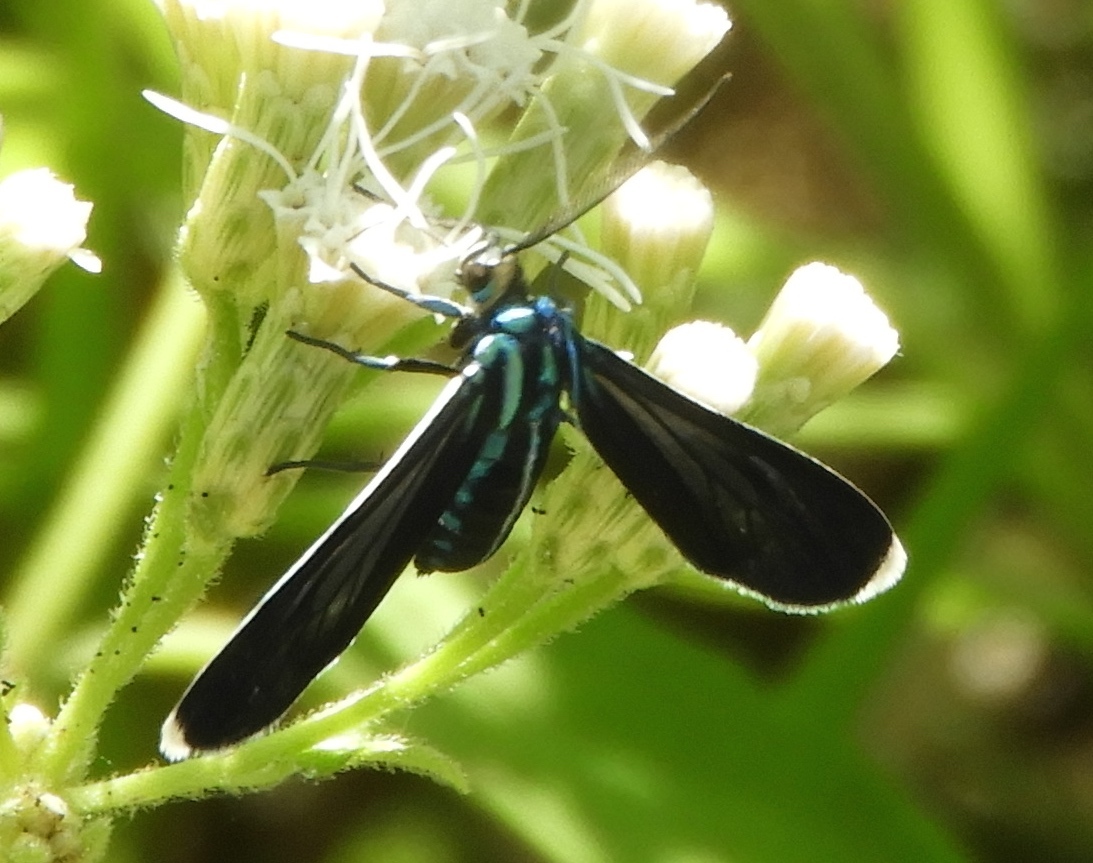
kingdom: Animalia
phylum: Arthropoda
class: Insecta
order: Lepidoptera
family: Erebidae
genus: Uranophora
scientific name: Uranophora leucotela
